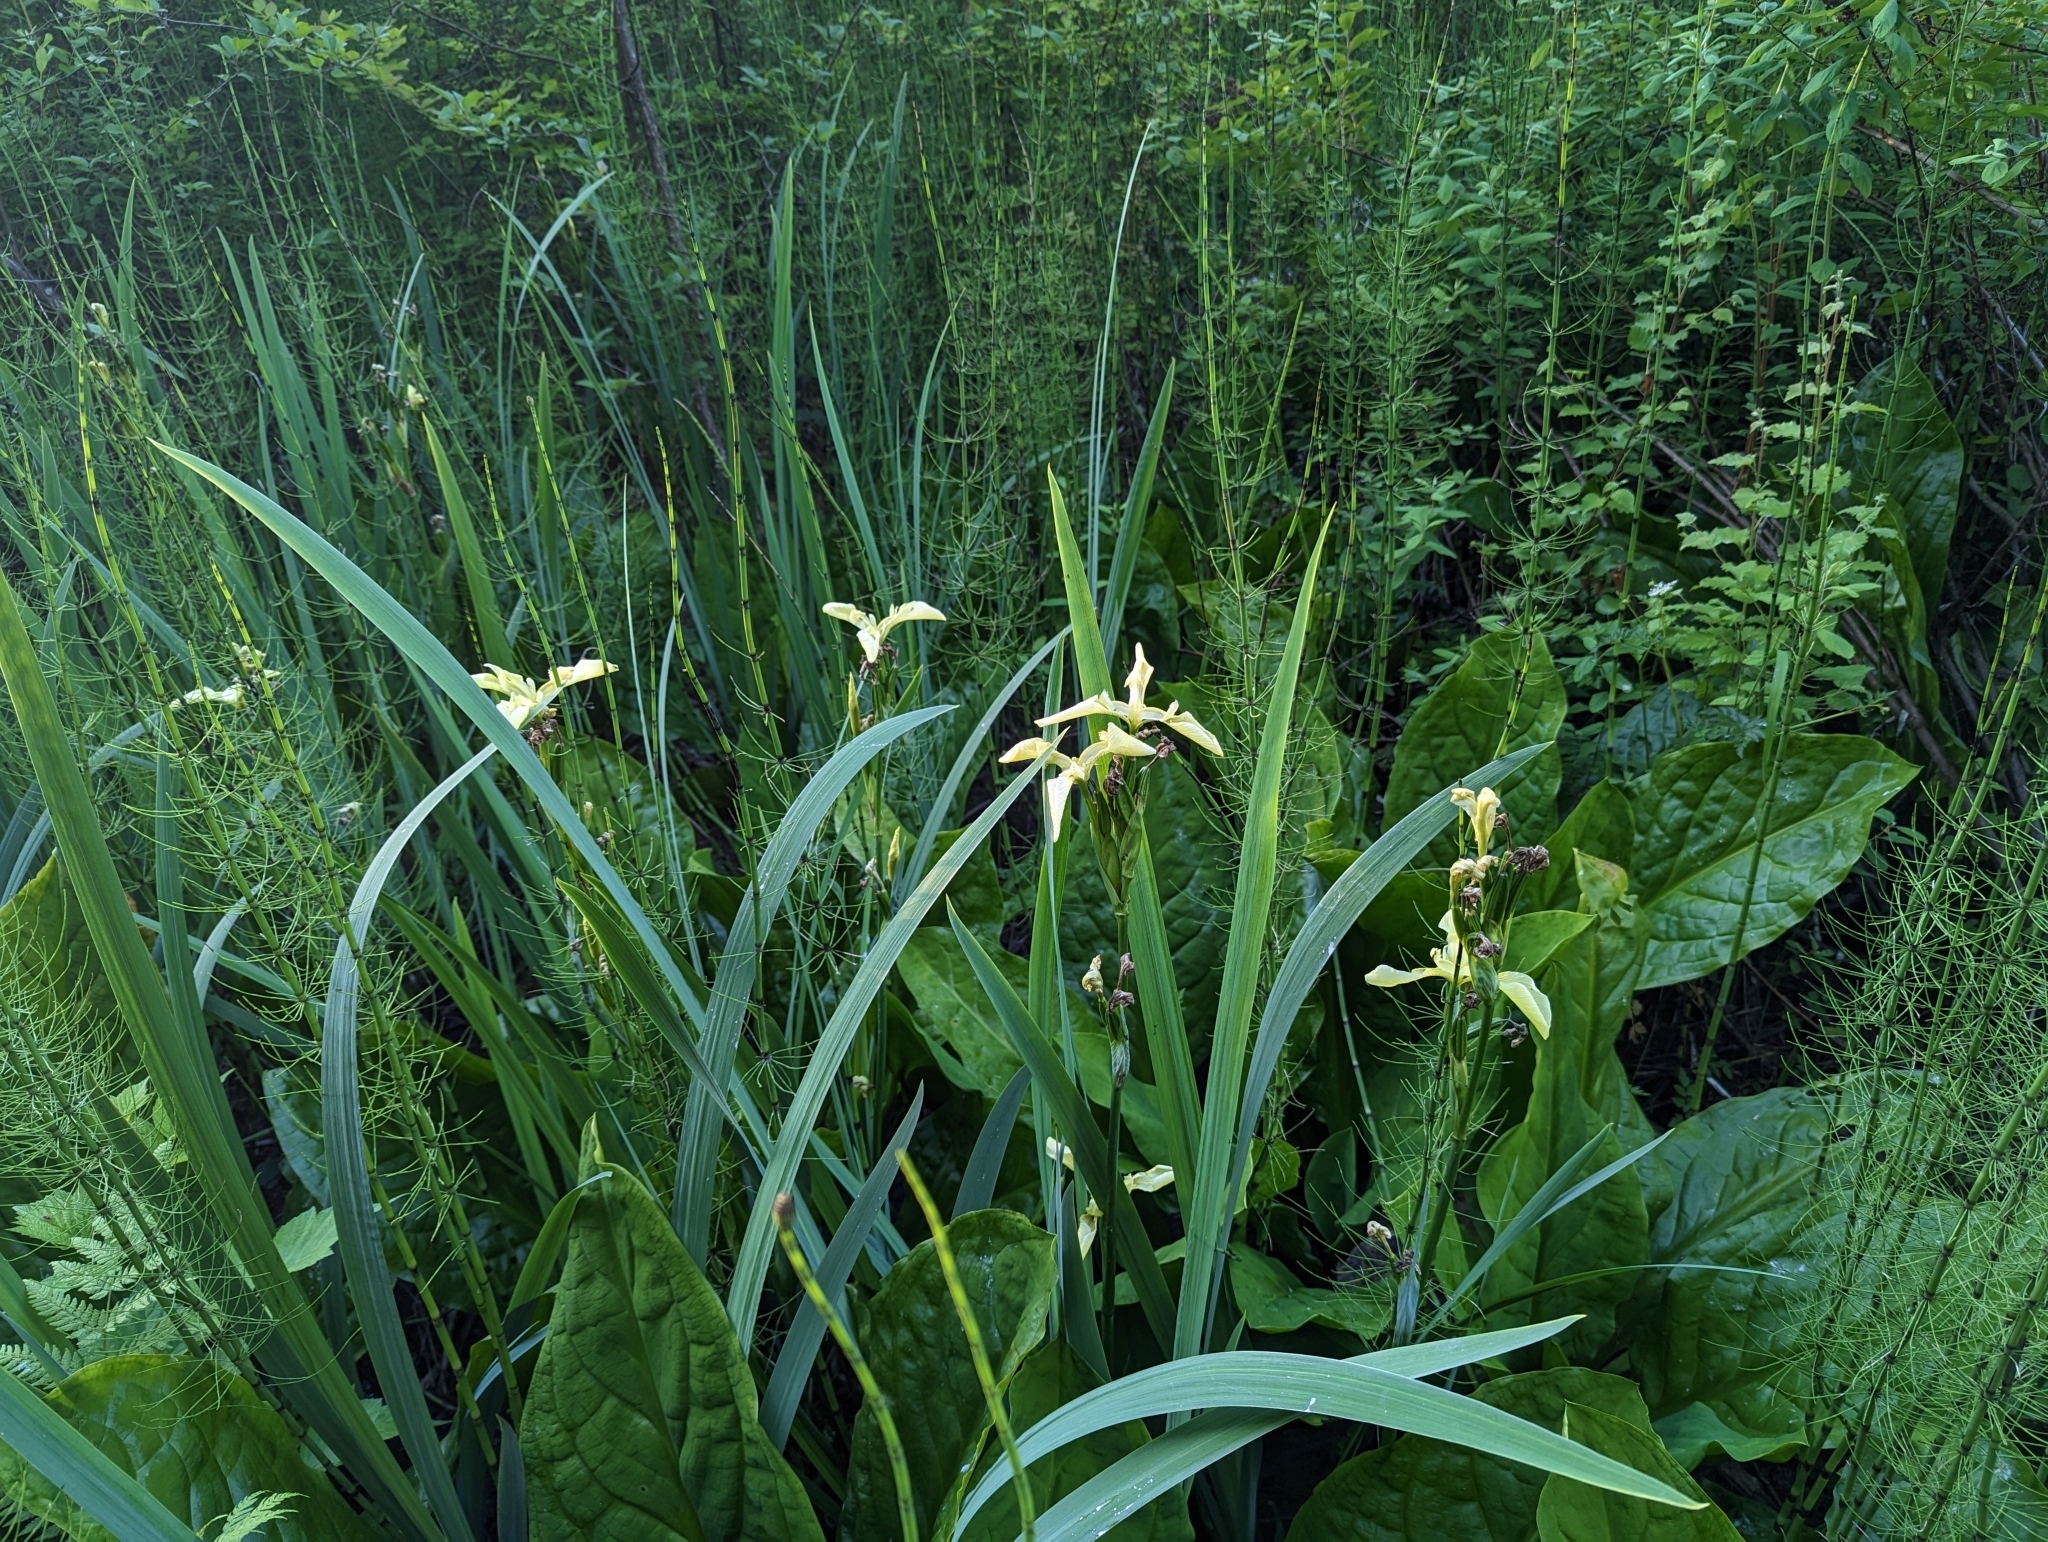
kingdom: Plantae
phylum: Tracheophyta
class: Liliopsida
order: Asparagales
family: Iridaceae
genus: Iris
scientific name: Iris pseudacorus
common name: Yellow flag
